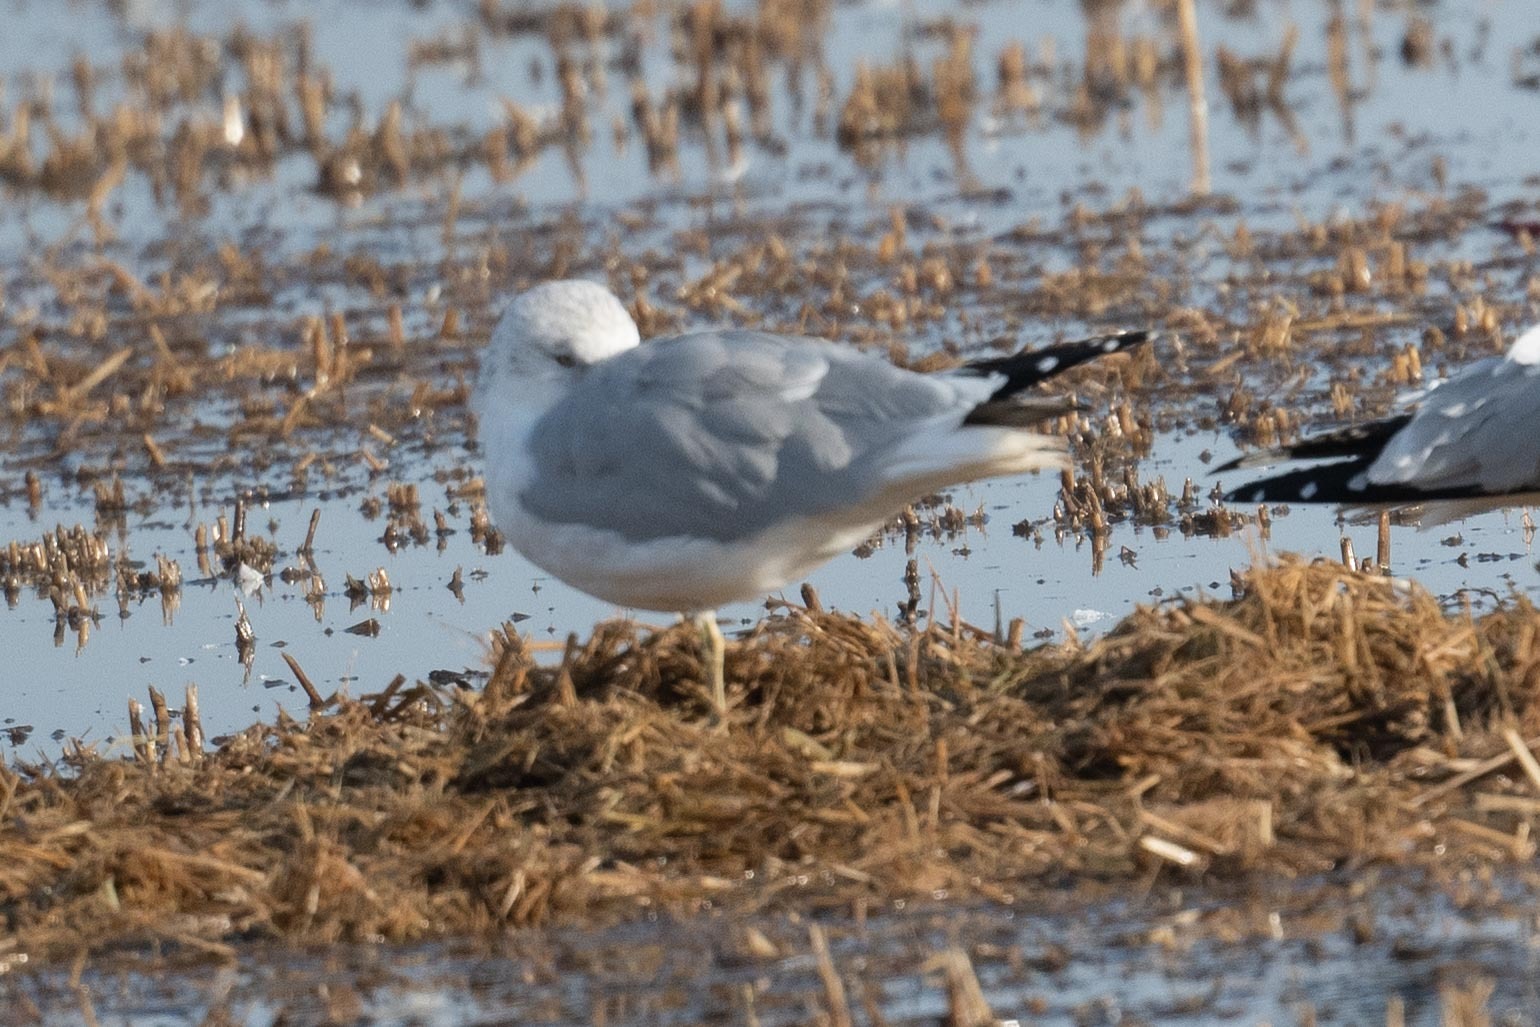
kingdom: Animalia
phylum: Chordata
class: Aves
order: Charadriiformes
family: Laridae
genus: Larus
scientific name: Larus delawarensis
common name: Ring-billed gull
